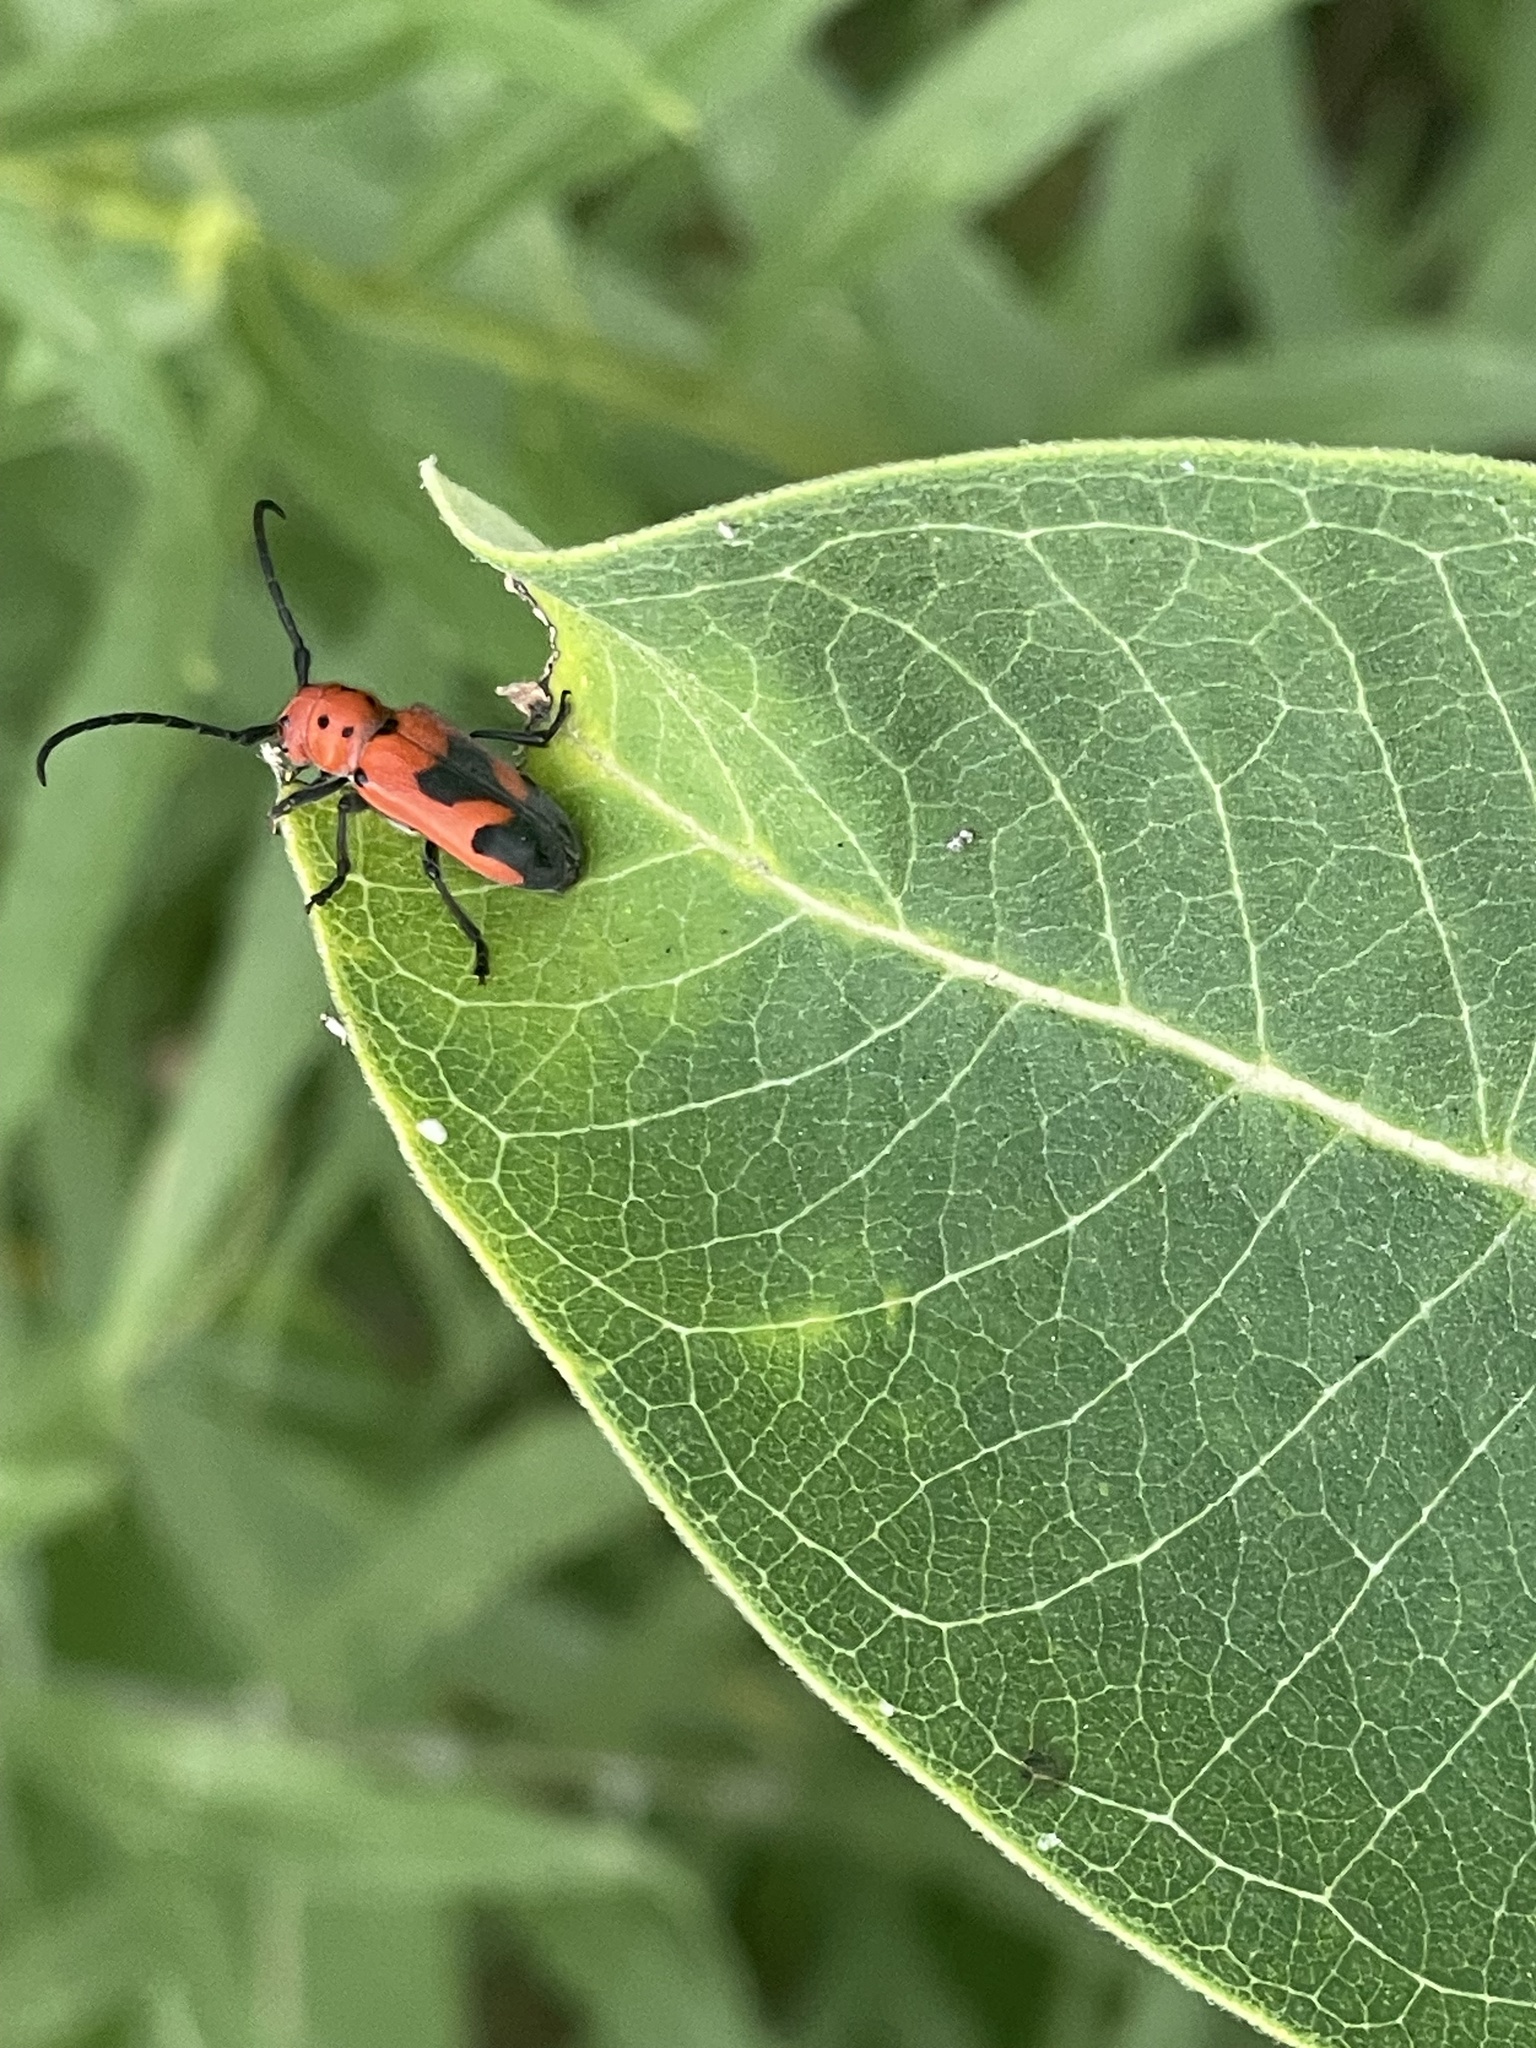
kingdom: Animalia
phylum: Arthropoda
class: Insecta
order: Coleoptera
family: Cerambycidae
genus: Tetraopes
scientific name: Tetraopes melanurus
